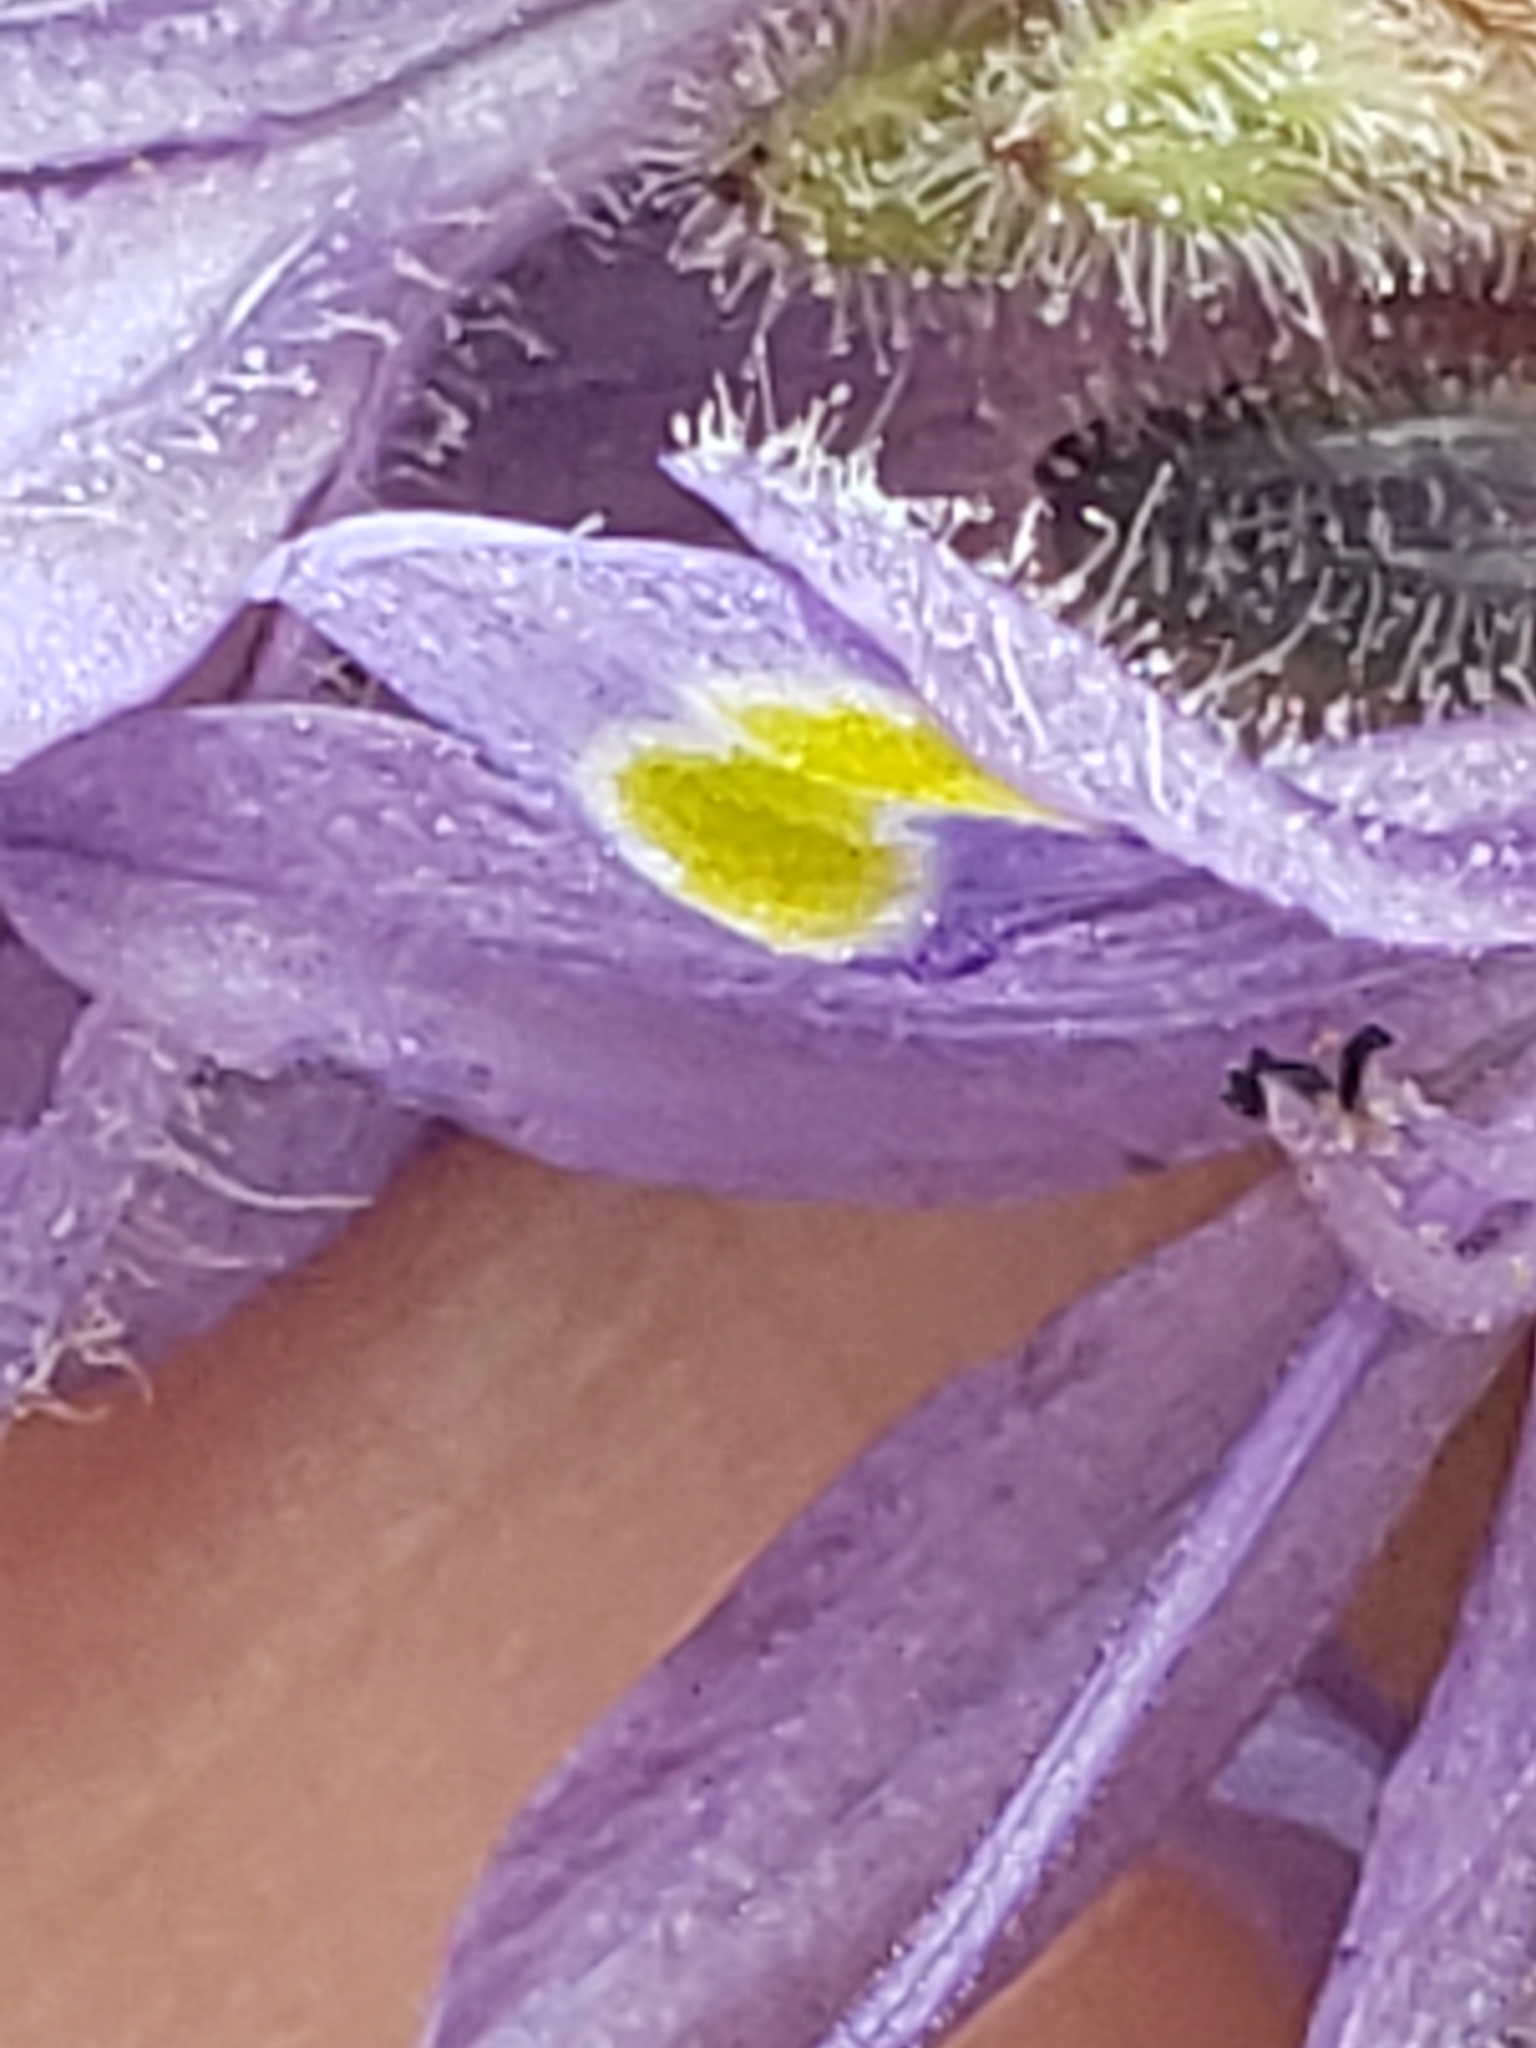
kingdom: Plantae
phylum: Tracheophyta
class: Liliopsida
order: Commelinales
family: Pontederiaceae
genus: Pontederia
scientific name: Pontederia cordata
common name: Pickerelweed
